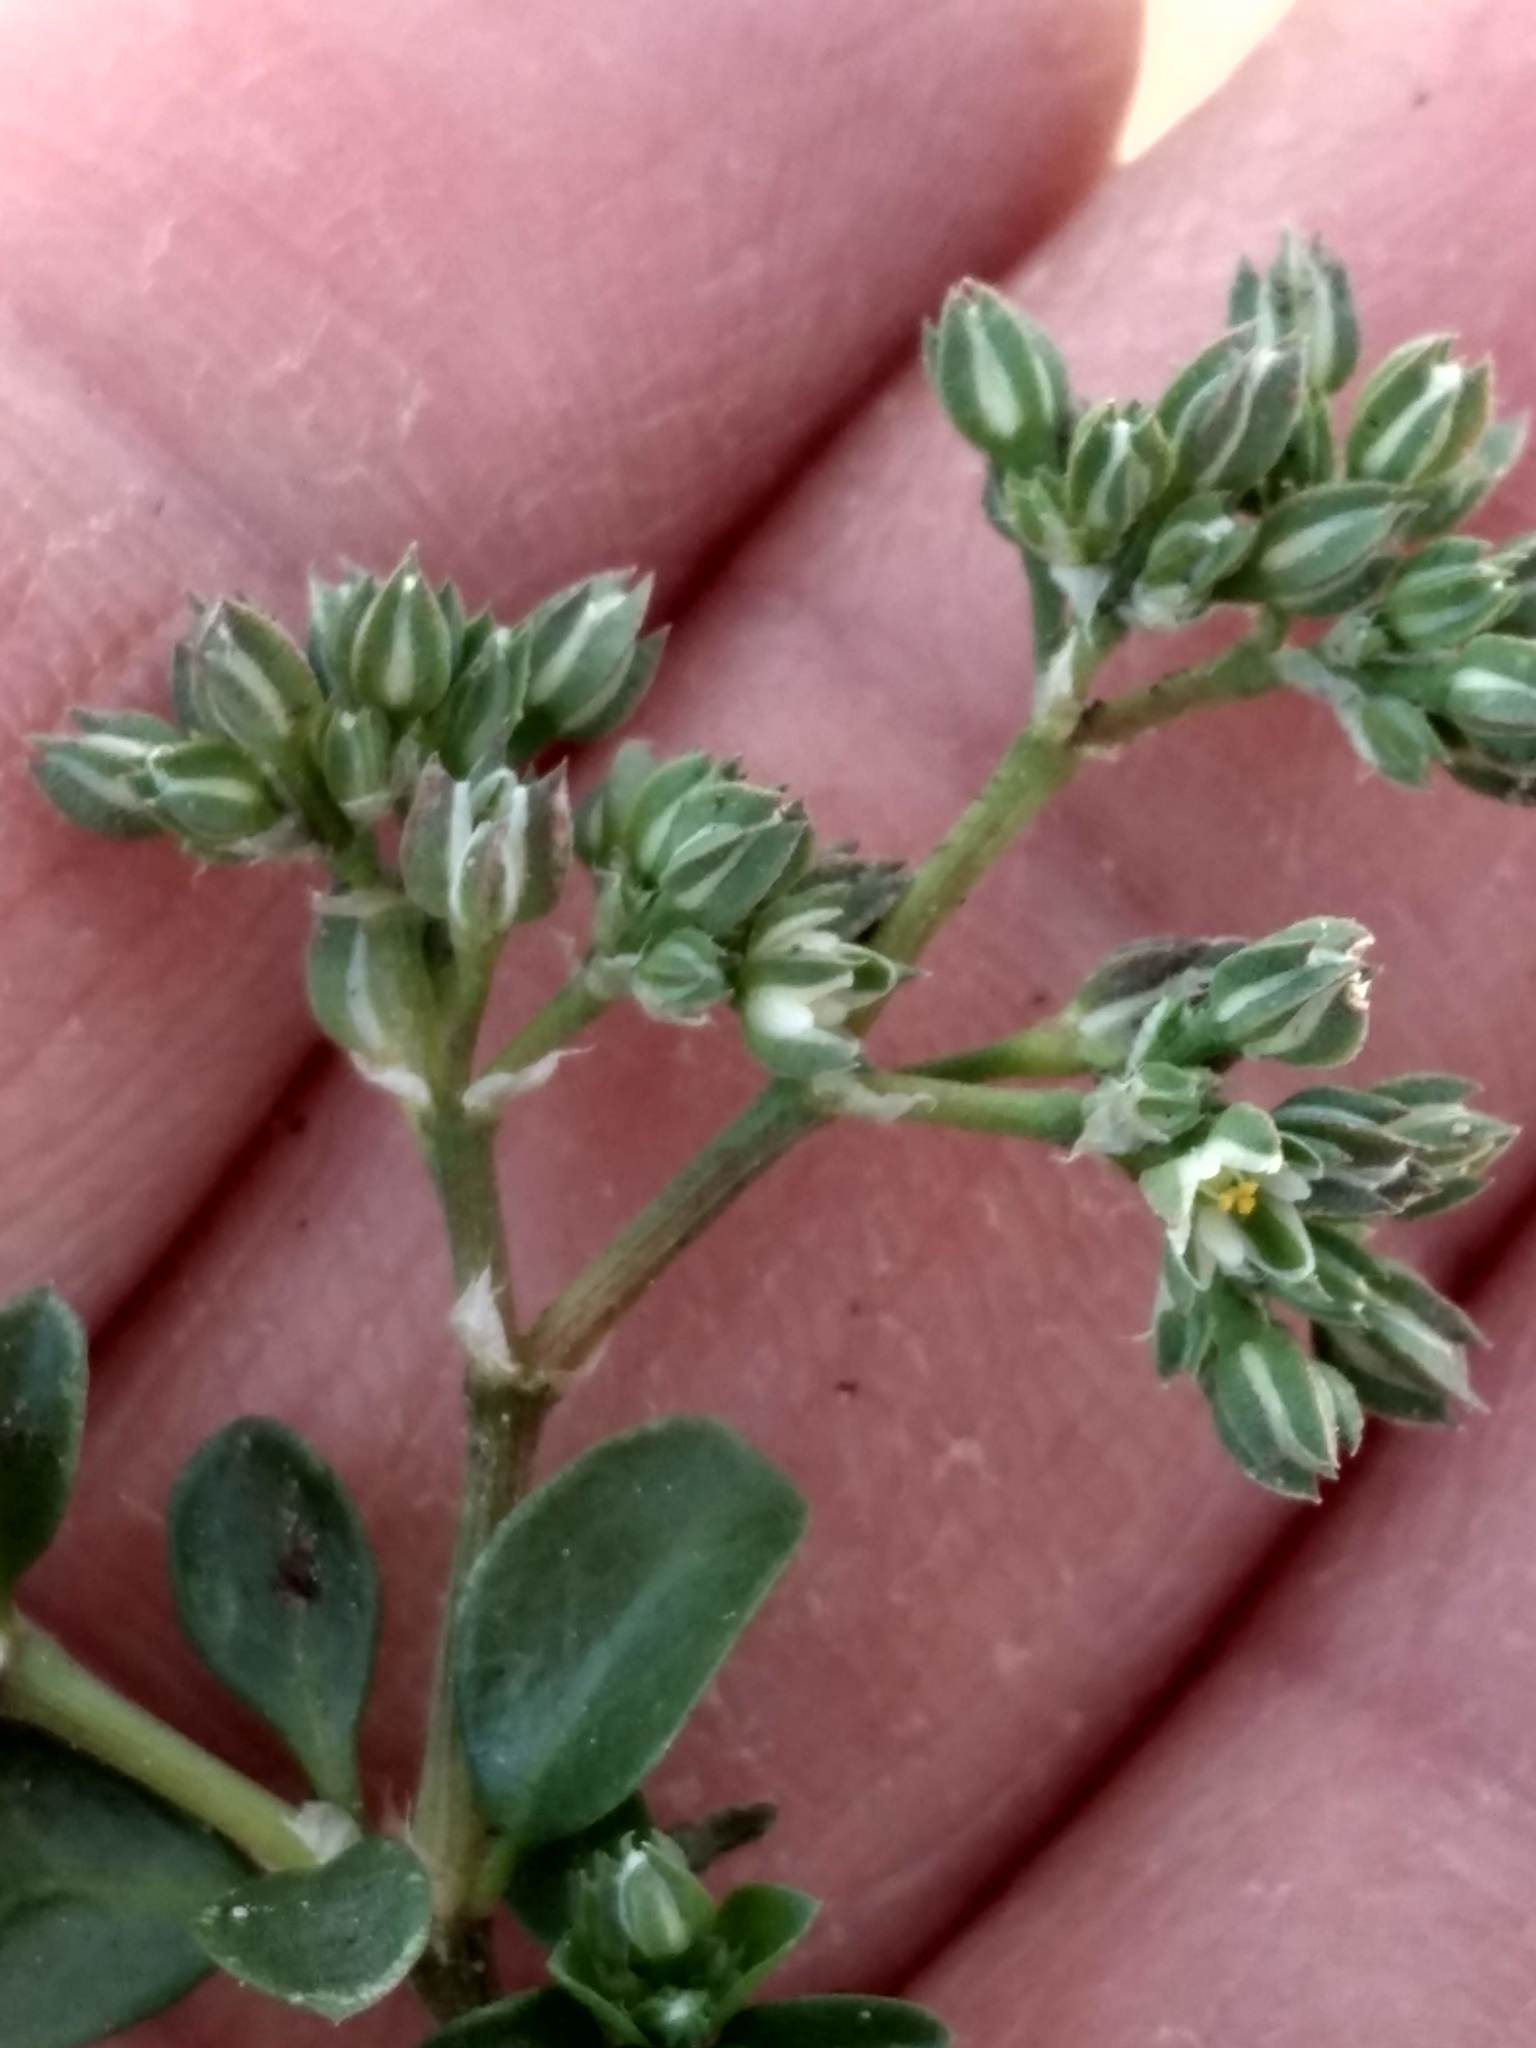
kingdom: Plantae
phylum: Tracheophyta
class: Magnoliopsida
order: Caryophyllales
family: Caryophyllaceae
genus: Polycarpon
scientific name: Polycarpon tetraphyllum
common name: Four-leaved all-seed
